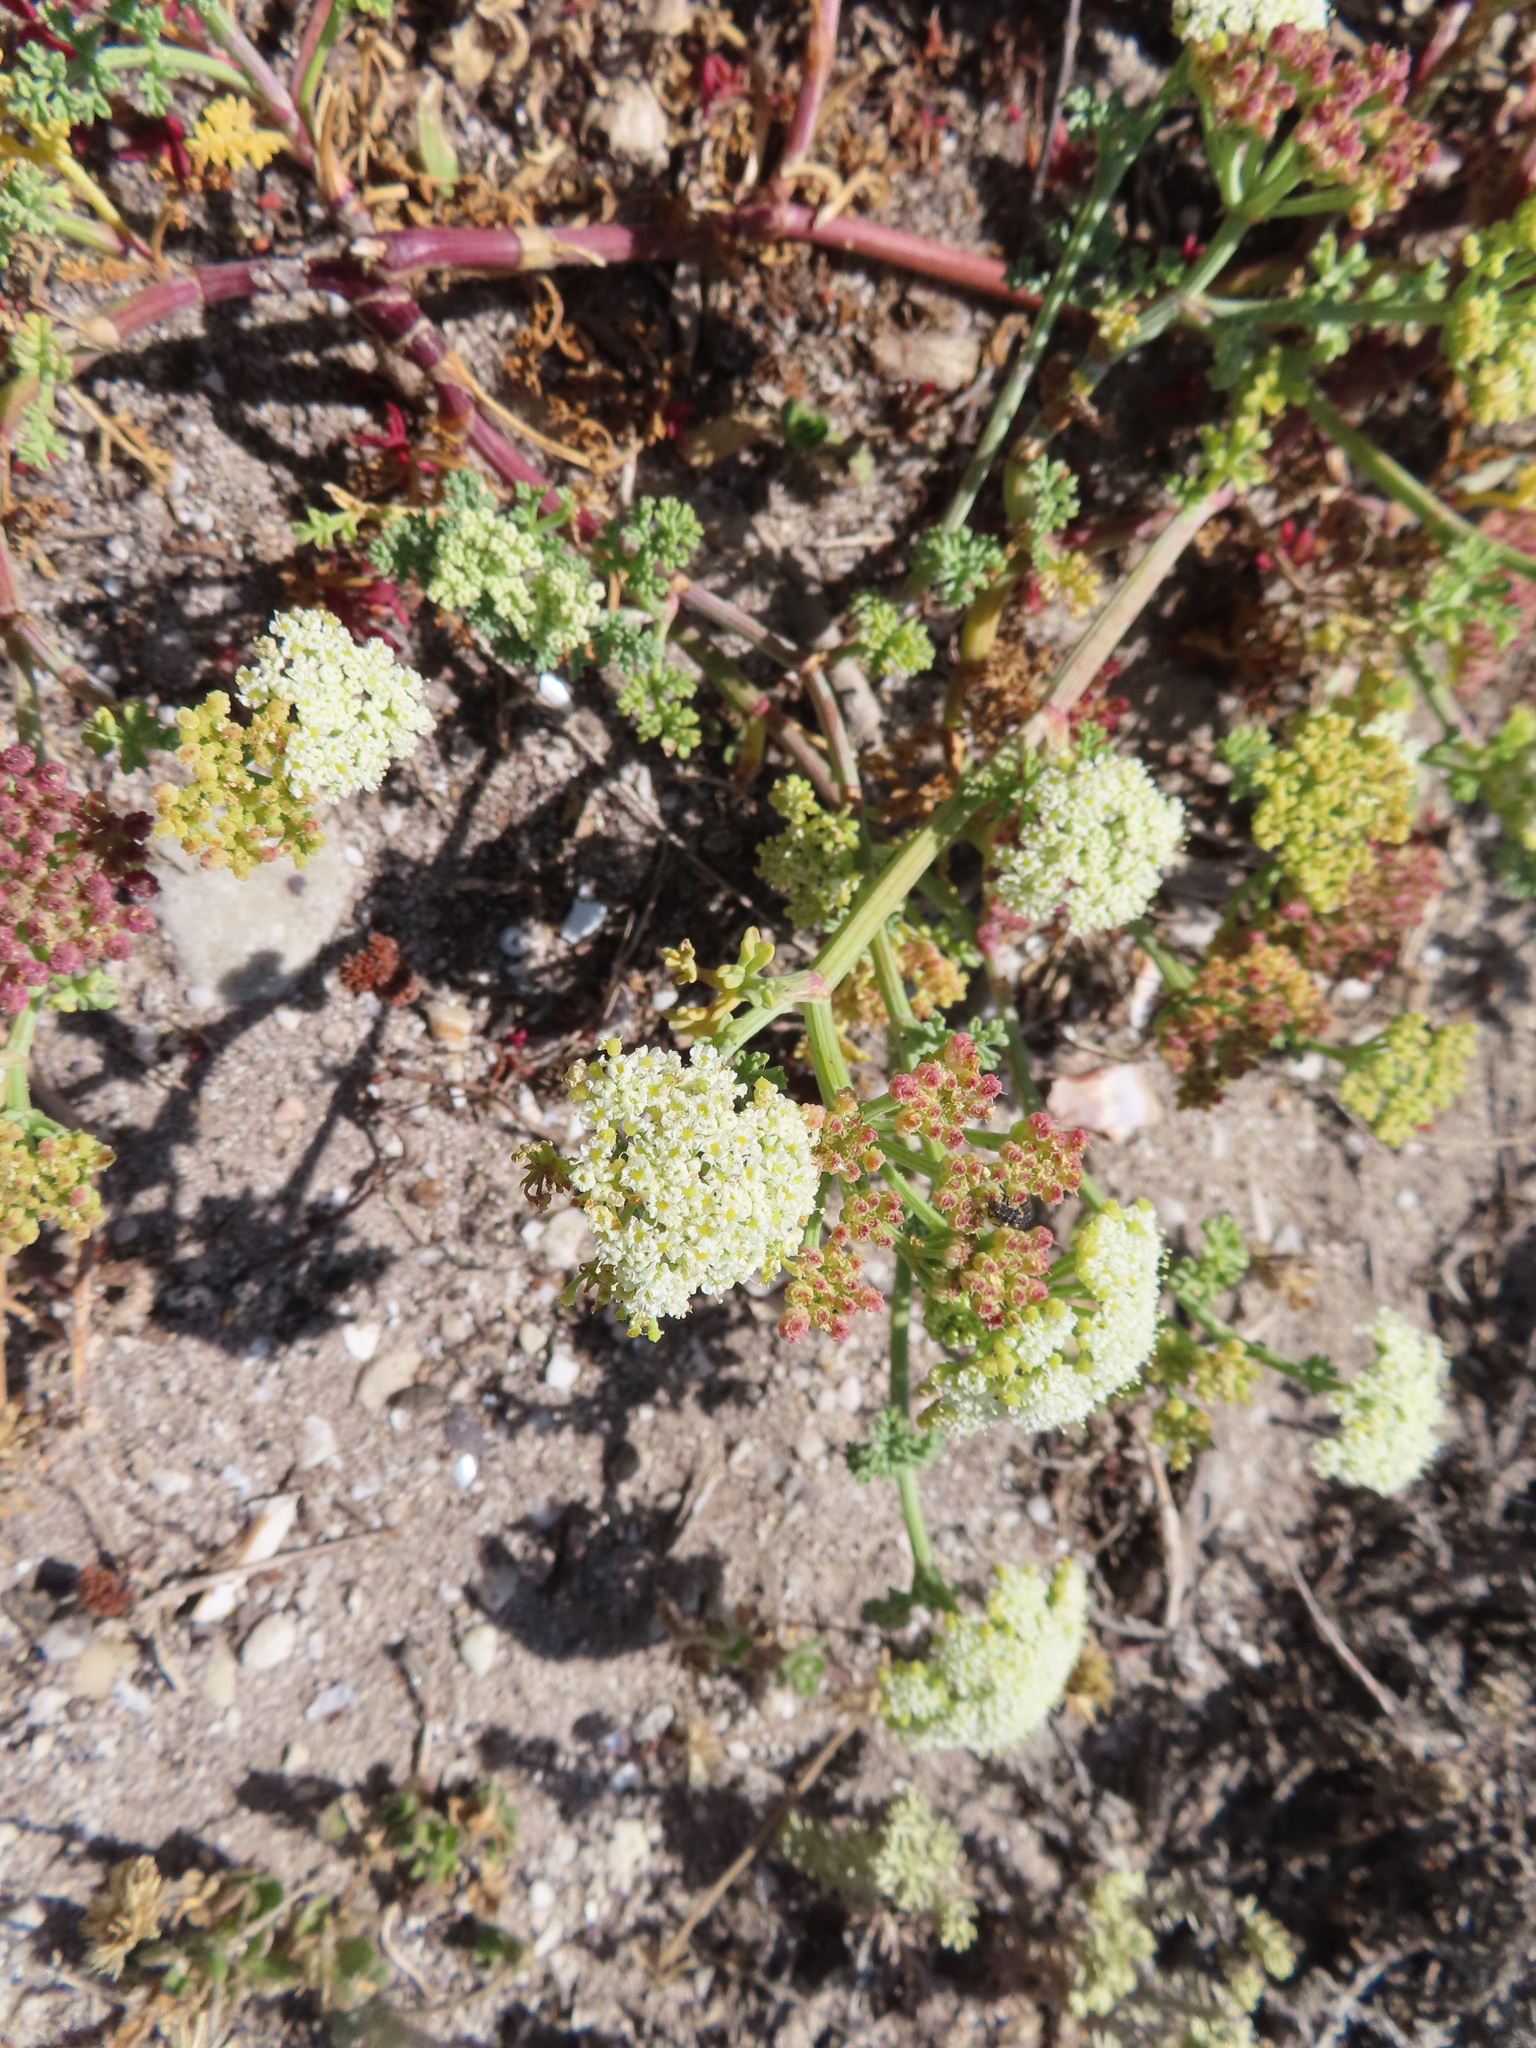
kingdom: Plantae
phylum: Tracheophyta
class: Magnoliopsida
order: Apiales
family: Apiaceae
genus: Dasispermum
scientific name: Dasispermum suffruticosum
